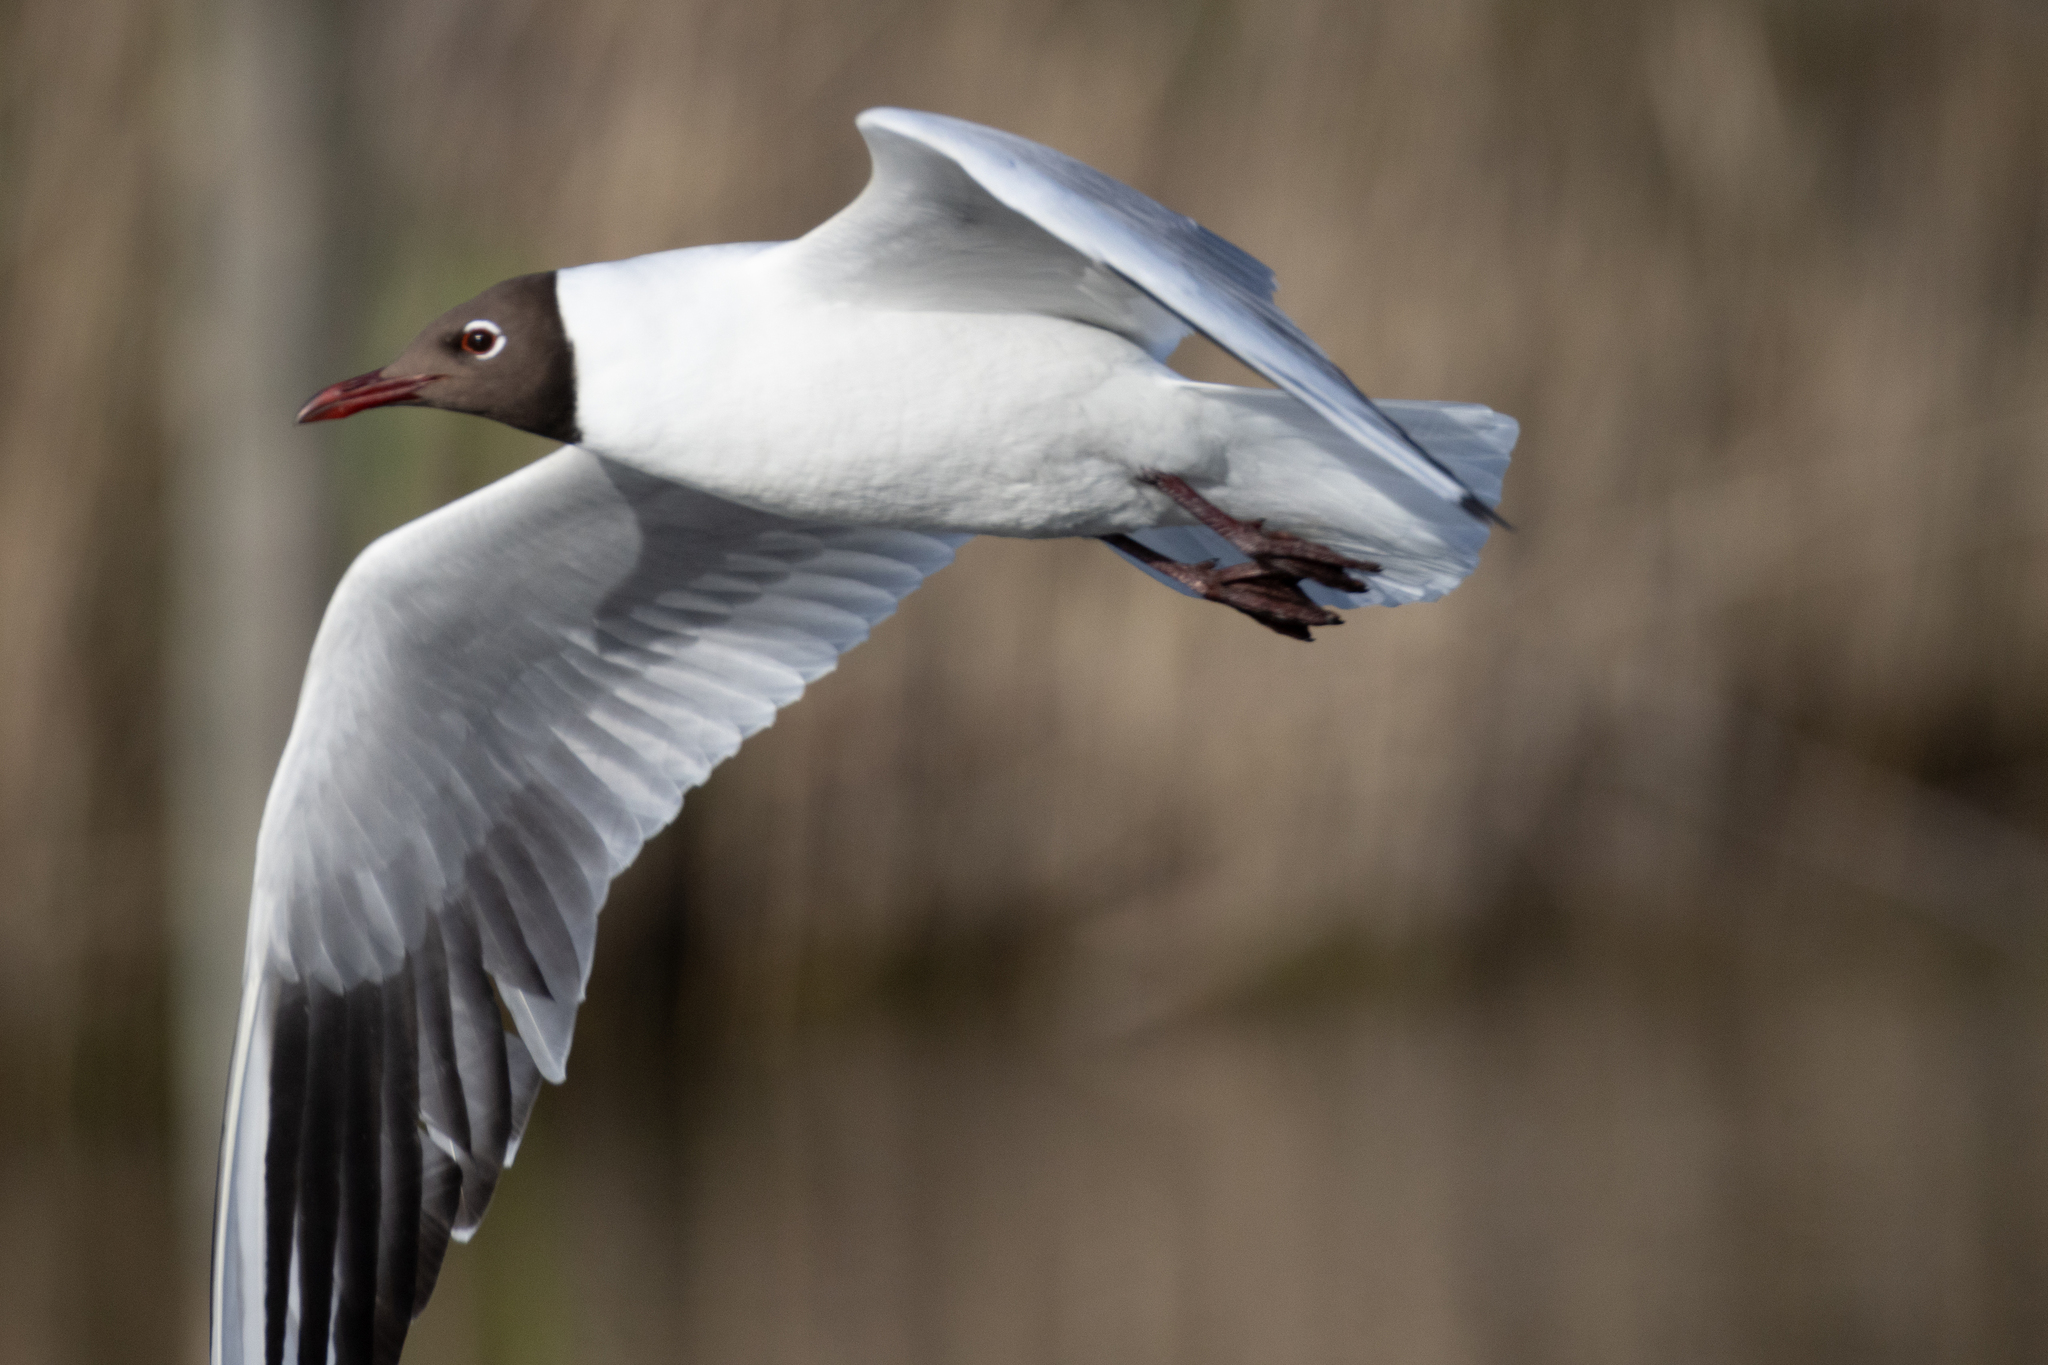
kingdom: Animalia
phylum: Chordata
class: Aves
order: Charadriiformes
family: Laridae
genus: Chroicocephalus
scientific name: Chroicocephalus ridibundus
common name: Black-headed gull
